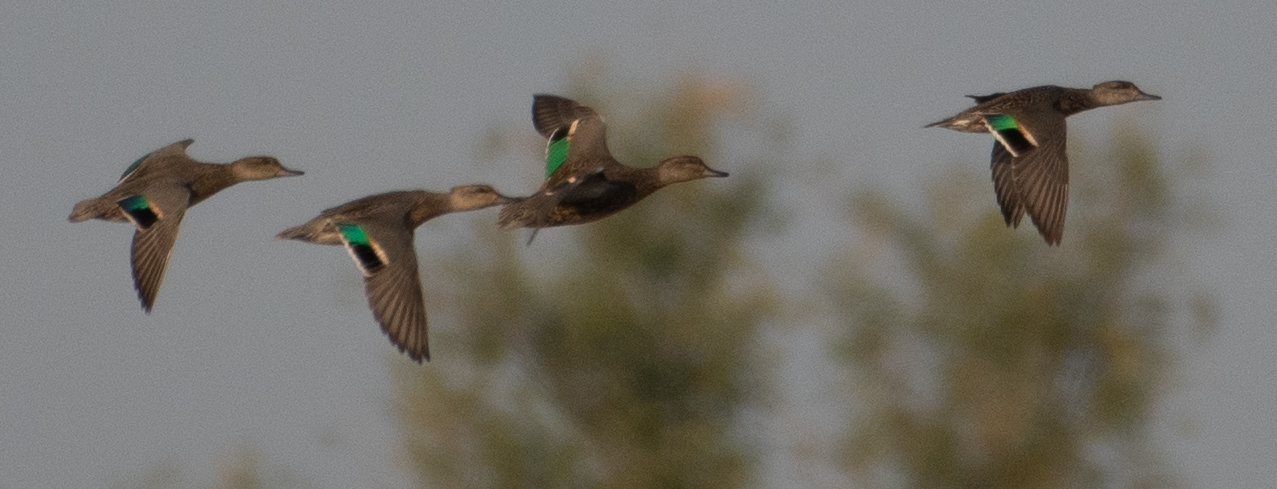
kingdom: Animalia
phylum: Chordata
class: Aves
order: Anseriformes
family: Anatidae
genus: Anas
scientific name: Anas crecca
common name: Eurasian teal
